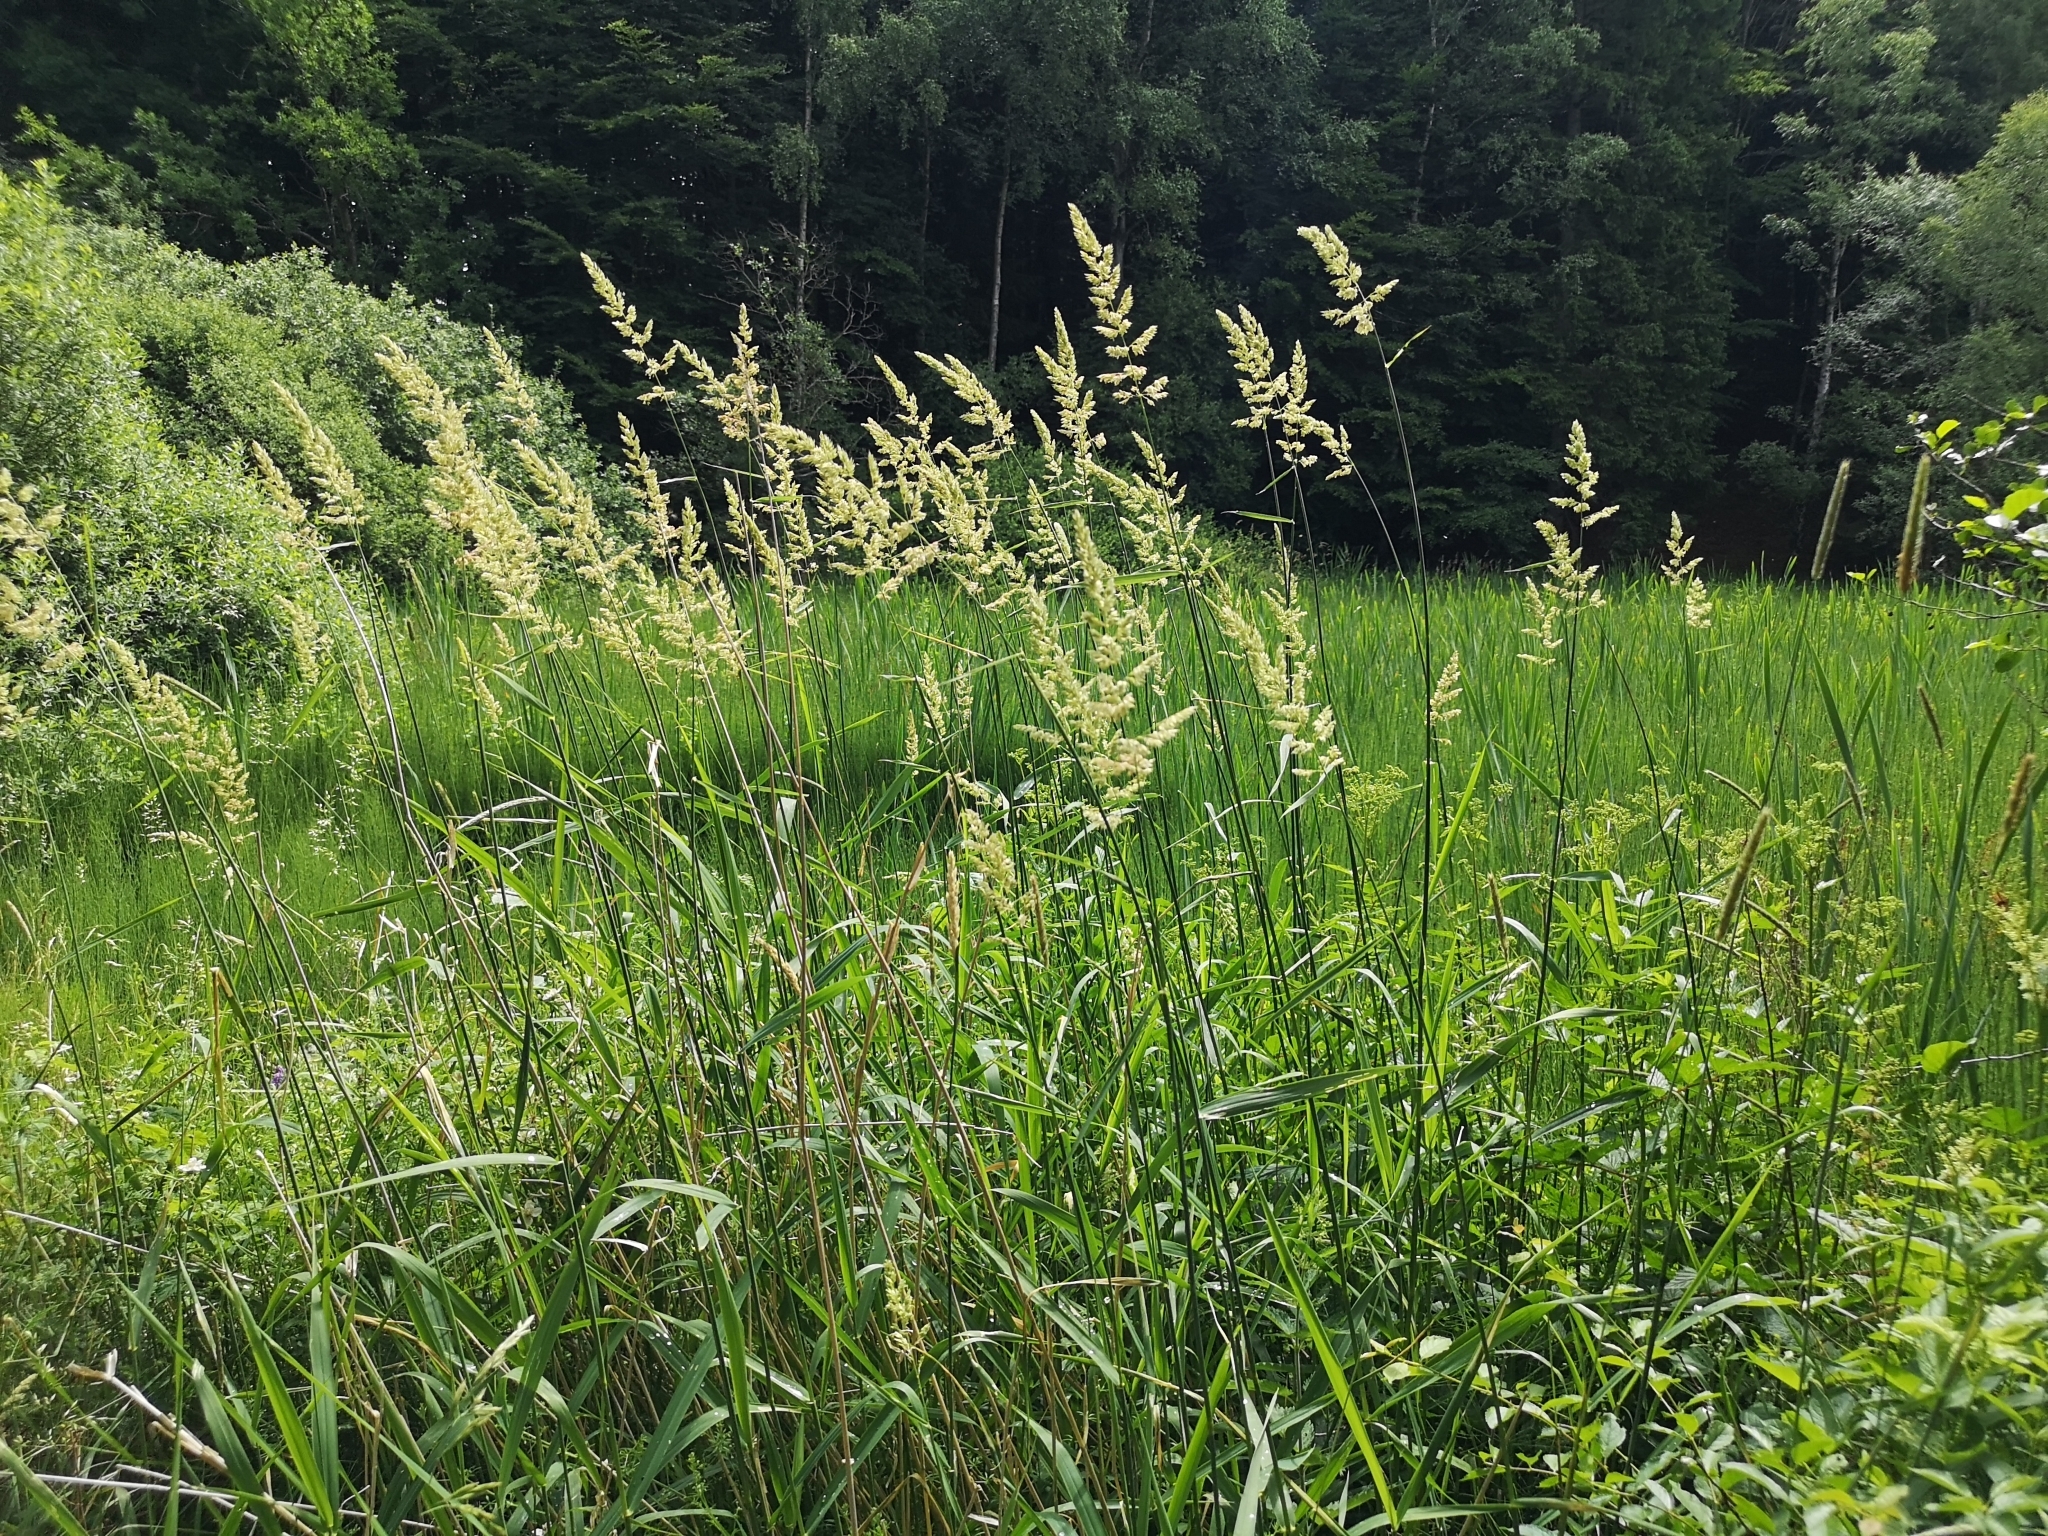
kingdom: Plantae
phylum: Tracheophyta
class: Liliopsida
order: Poales
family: Poaceae
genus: Phalaris
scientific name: Phalaris arundinacea
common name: Reed canary-grass
